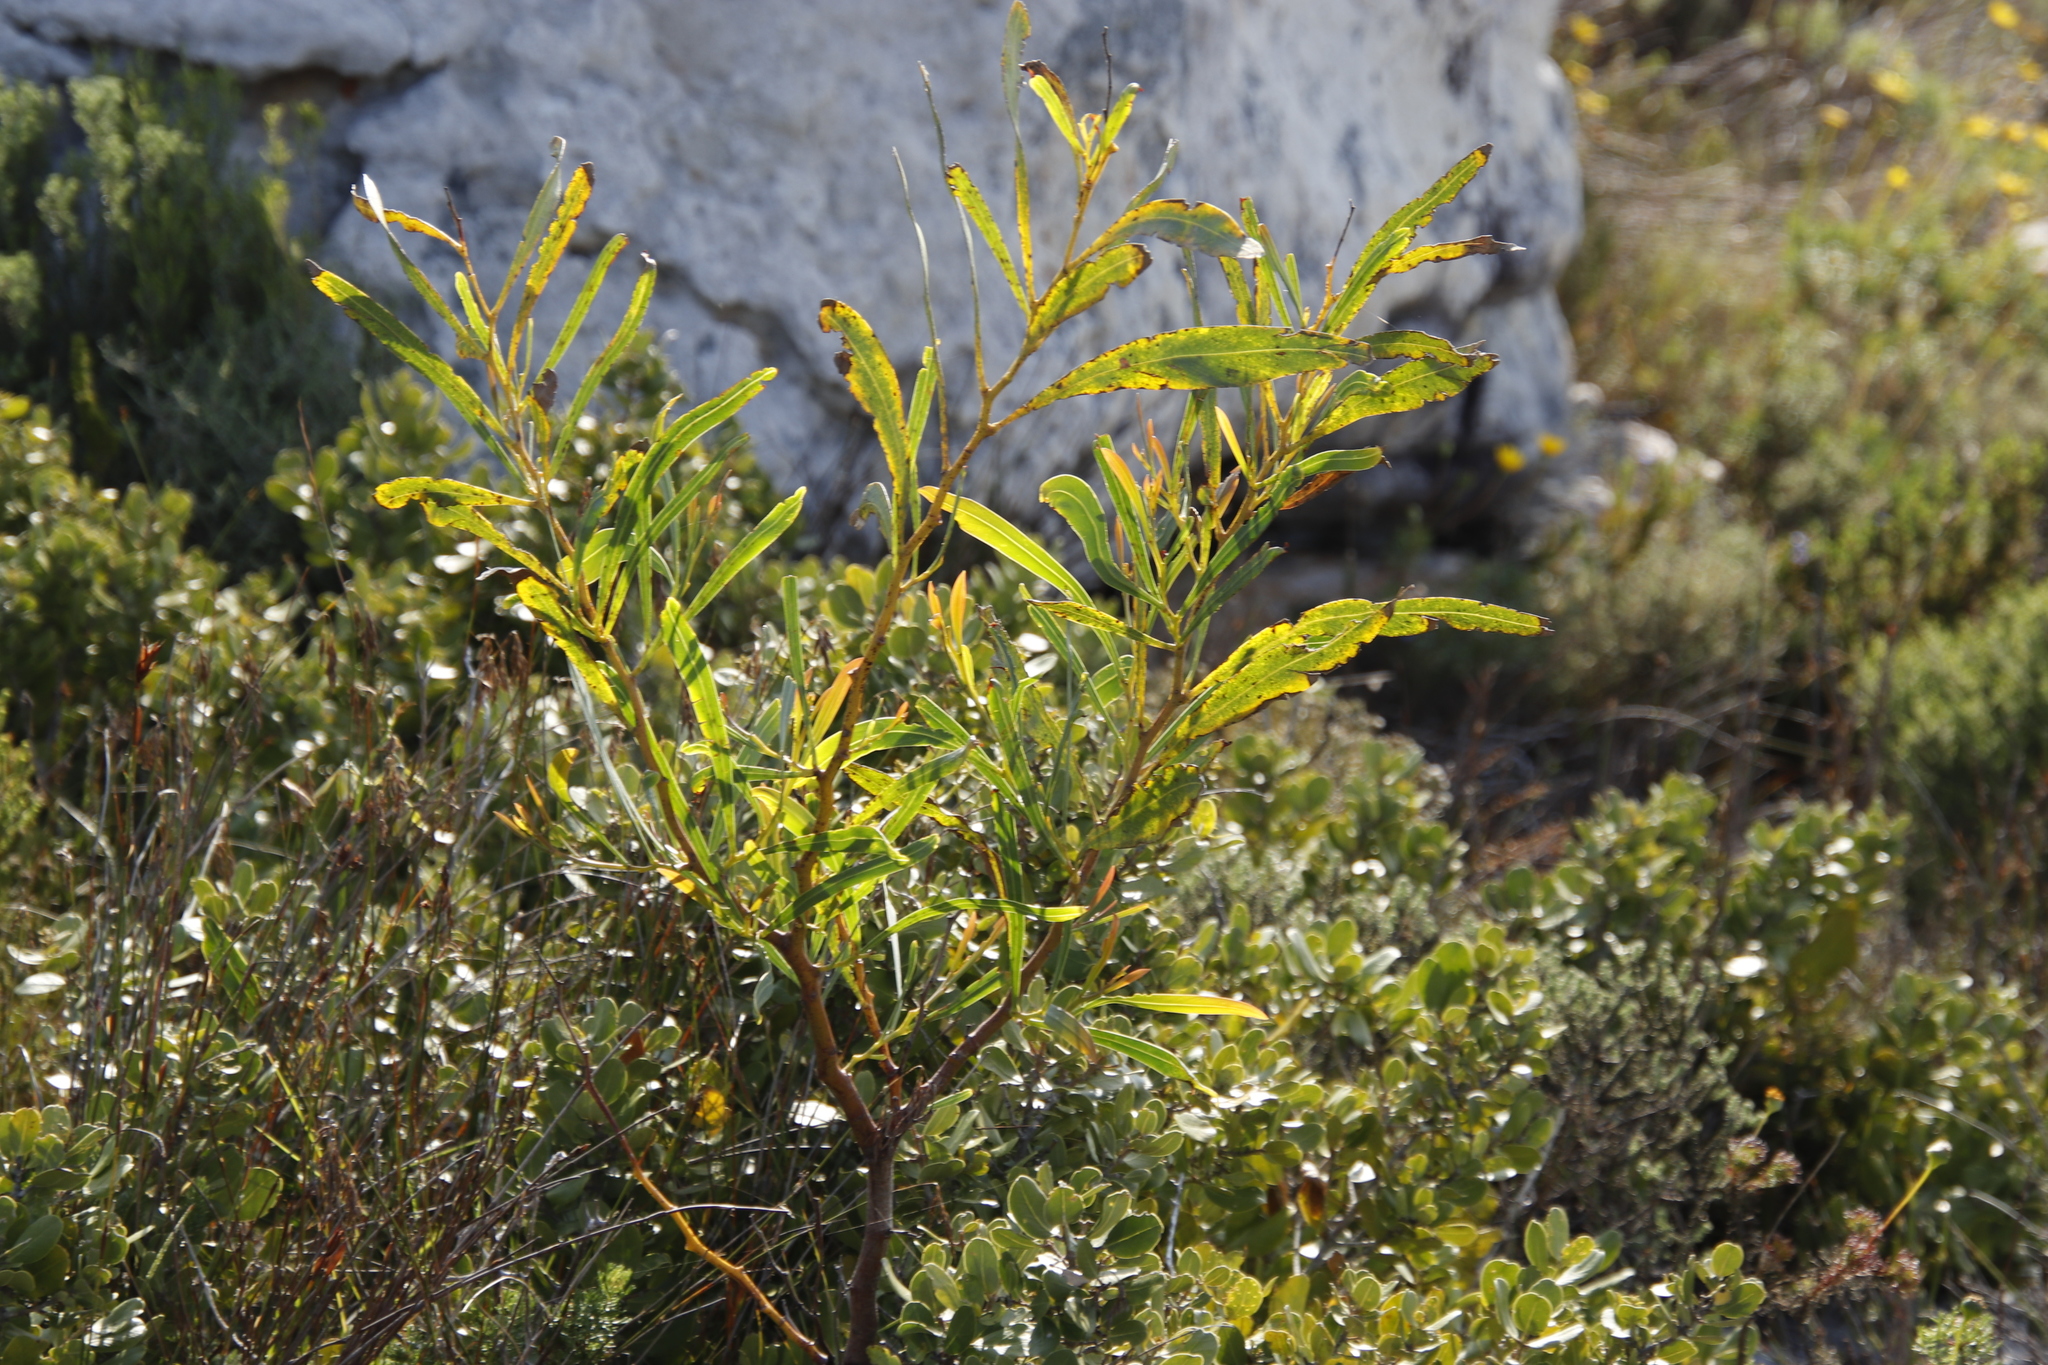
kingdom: Plantae
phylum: Tracheophyta
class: Magnoliopsida
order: Fabales
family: Fabaceae
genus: Acacia
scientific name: Acacia saligna
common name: Orange wattle
